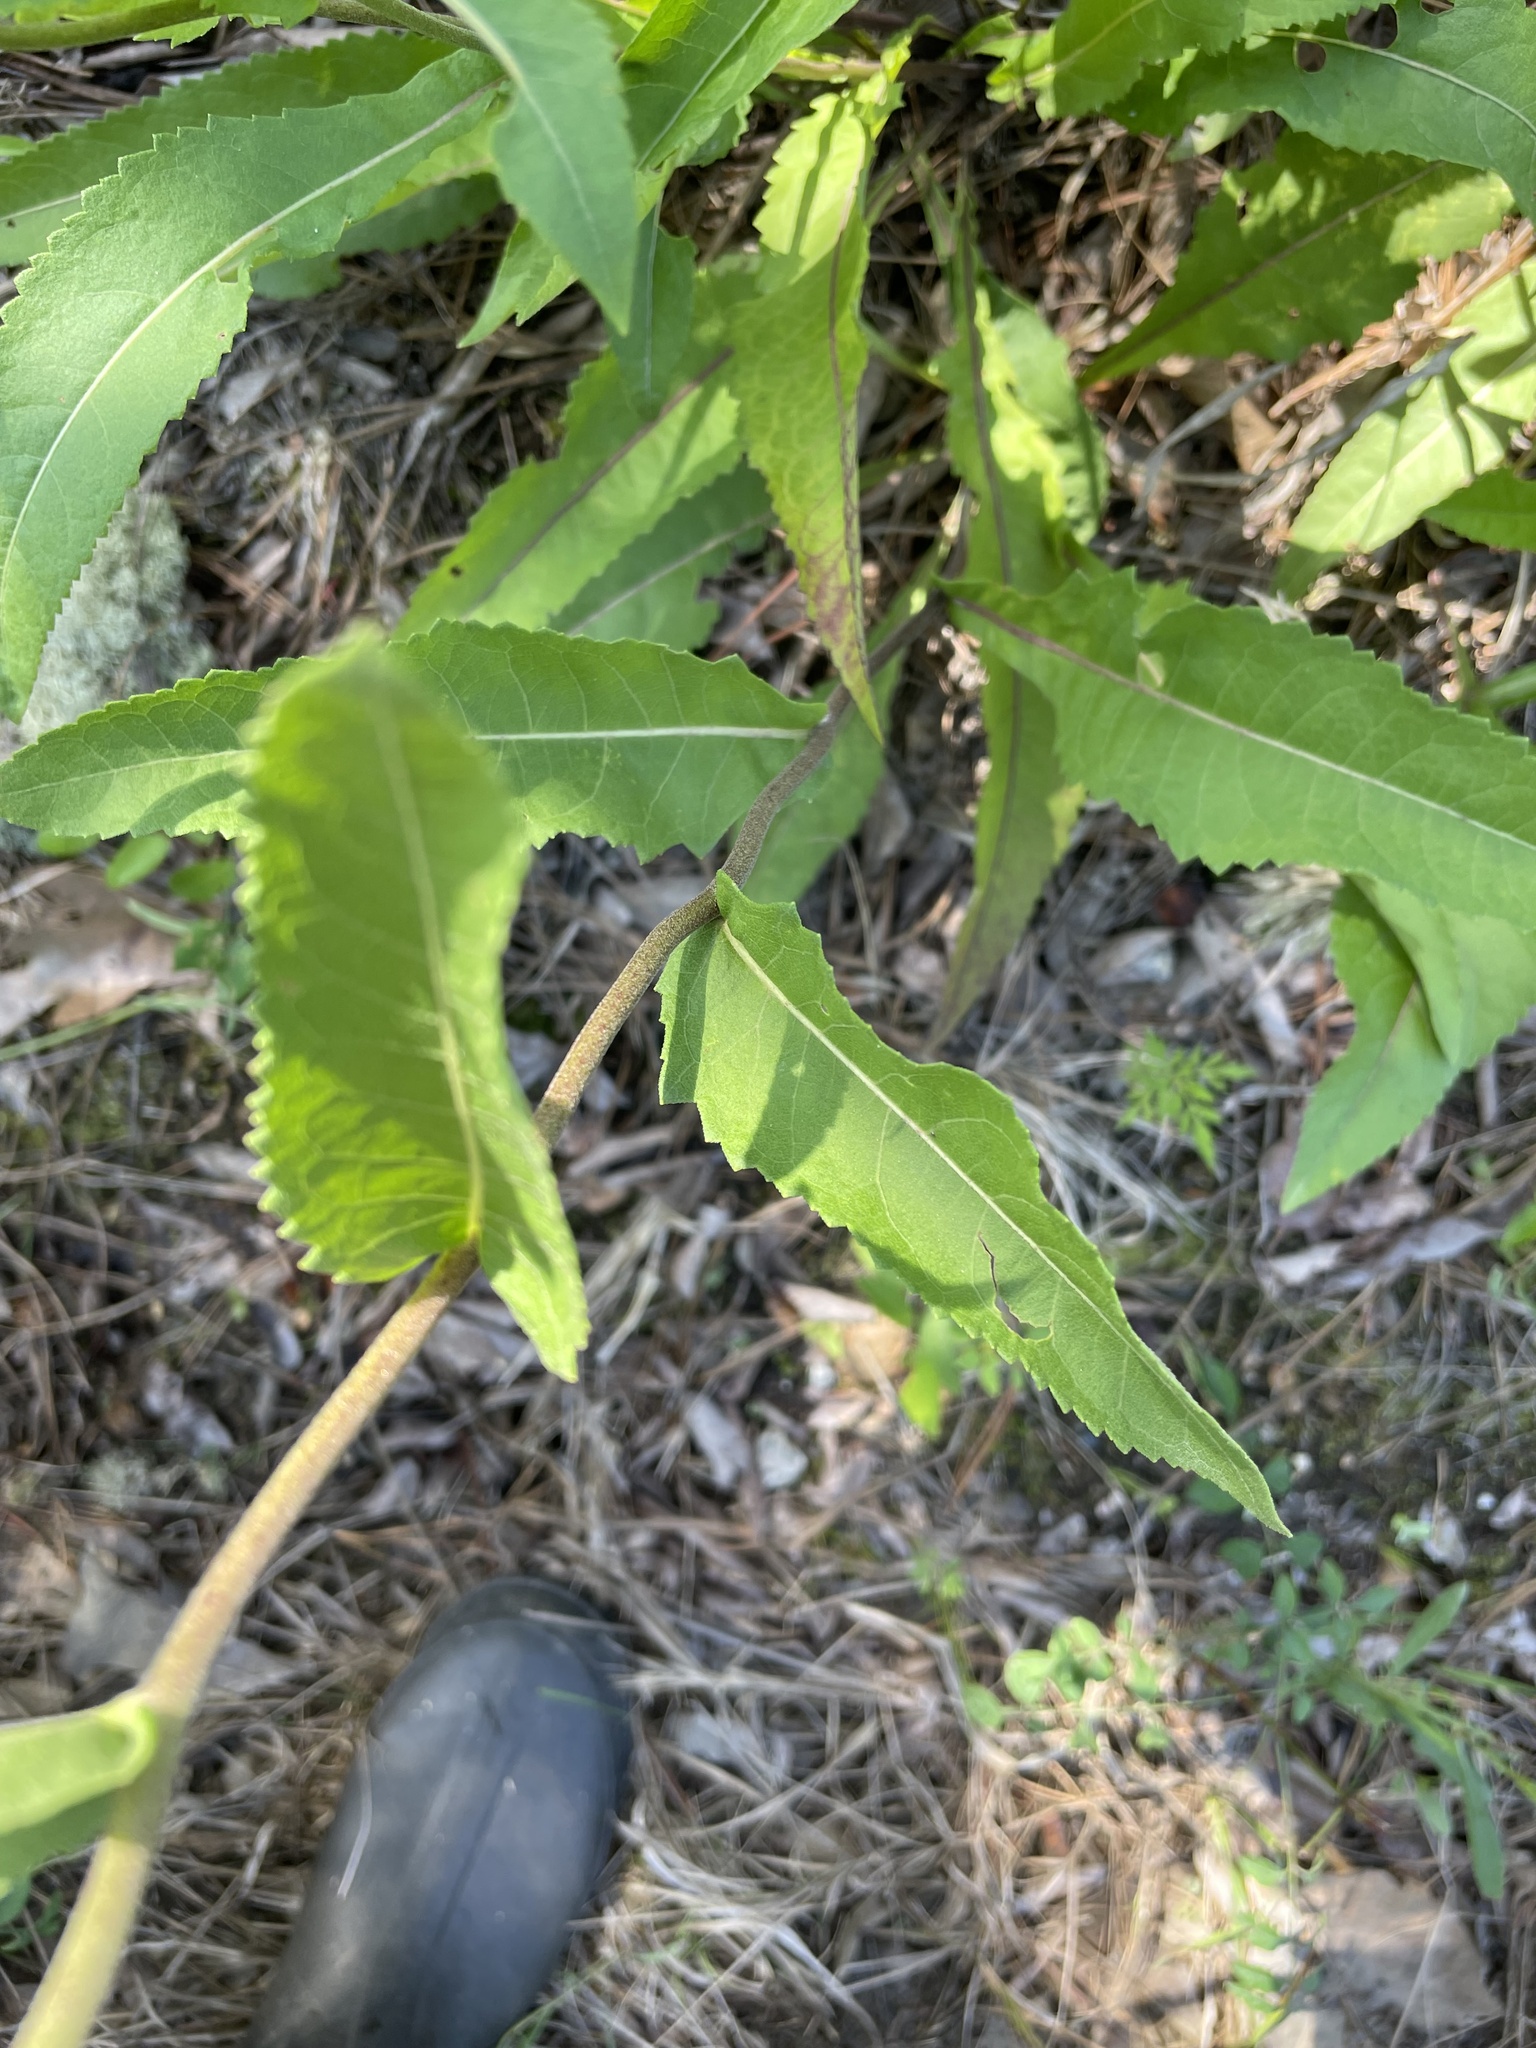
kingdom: Plantae
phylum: Tracheophyta
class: Magnoliopsida
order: Asterales
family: Asteraceae
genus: Parthenium
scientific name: Parthenium integrifolium
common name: American feverfew
